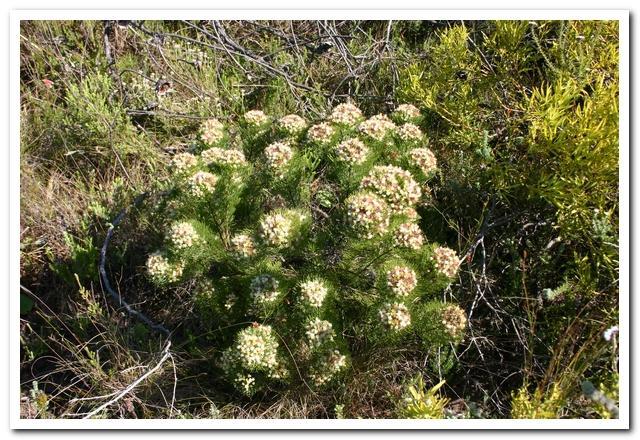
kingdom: Plantae
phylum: Tracheophyta
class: Magnoliopsida
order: Proteales
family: Proteaceae
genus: Serruria
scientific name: Serruria fasciflora
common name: Common pin spiderhead
